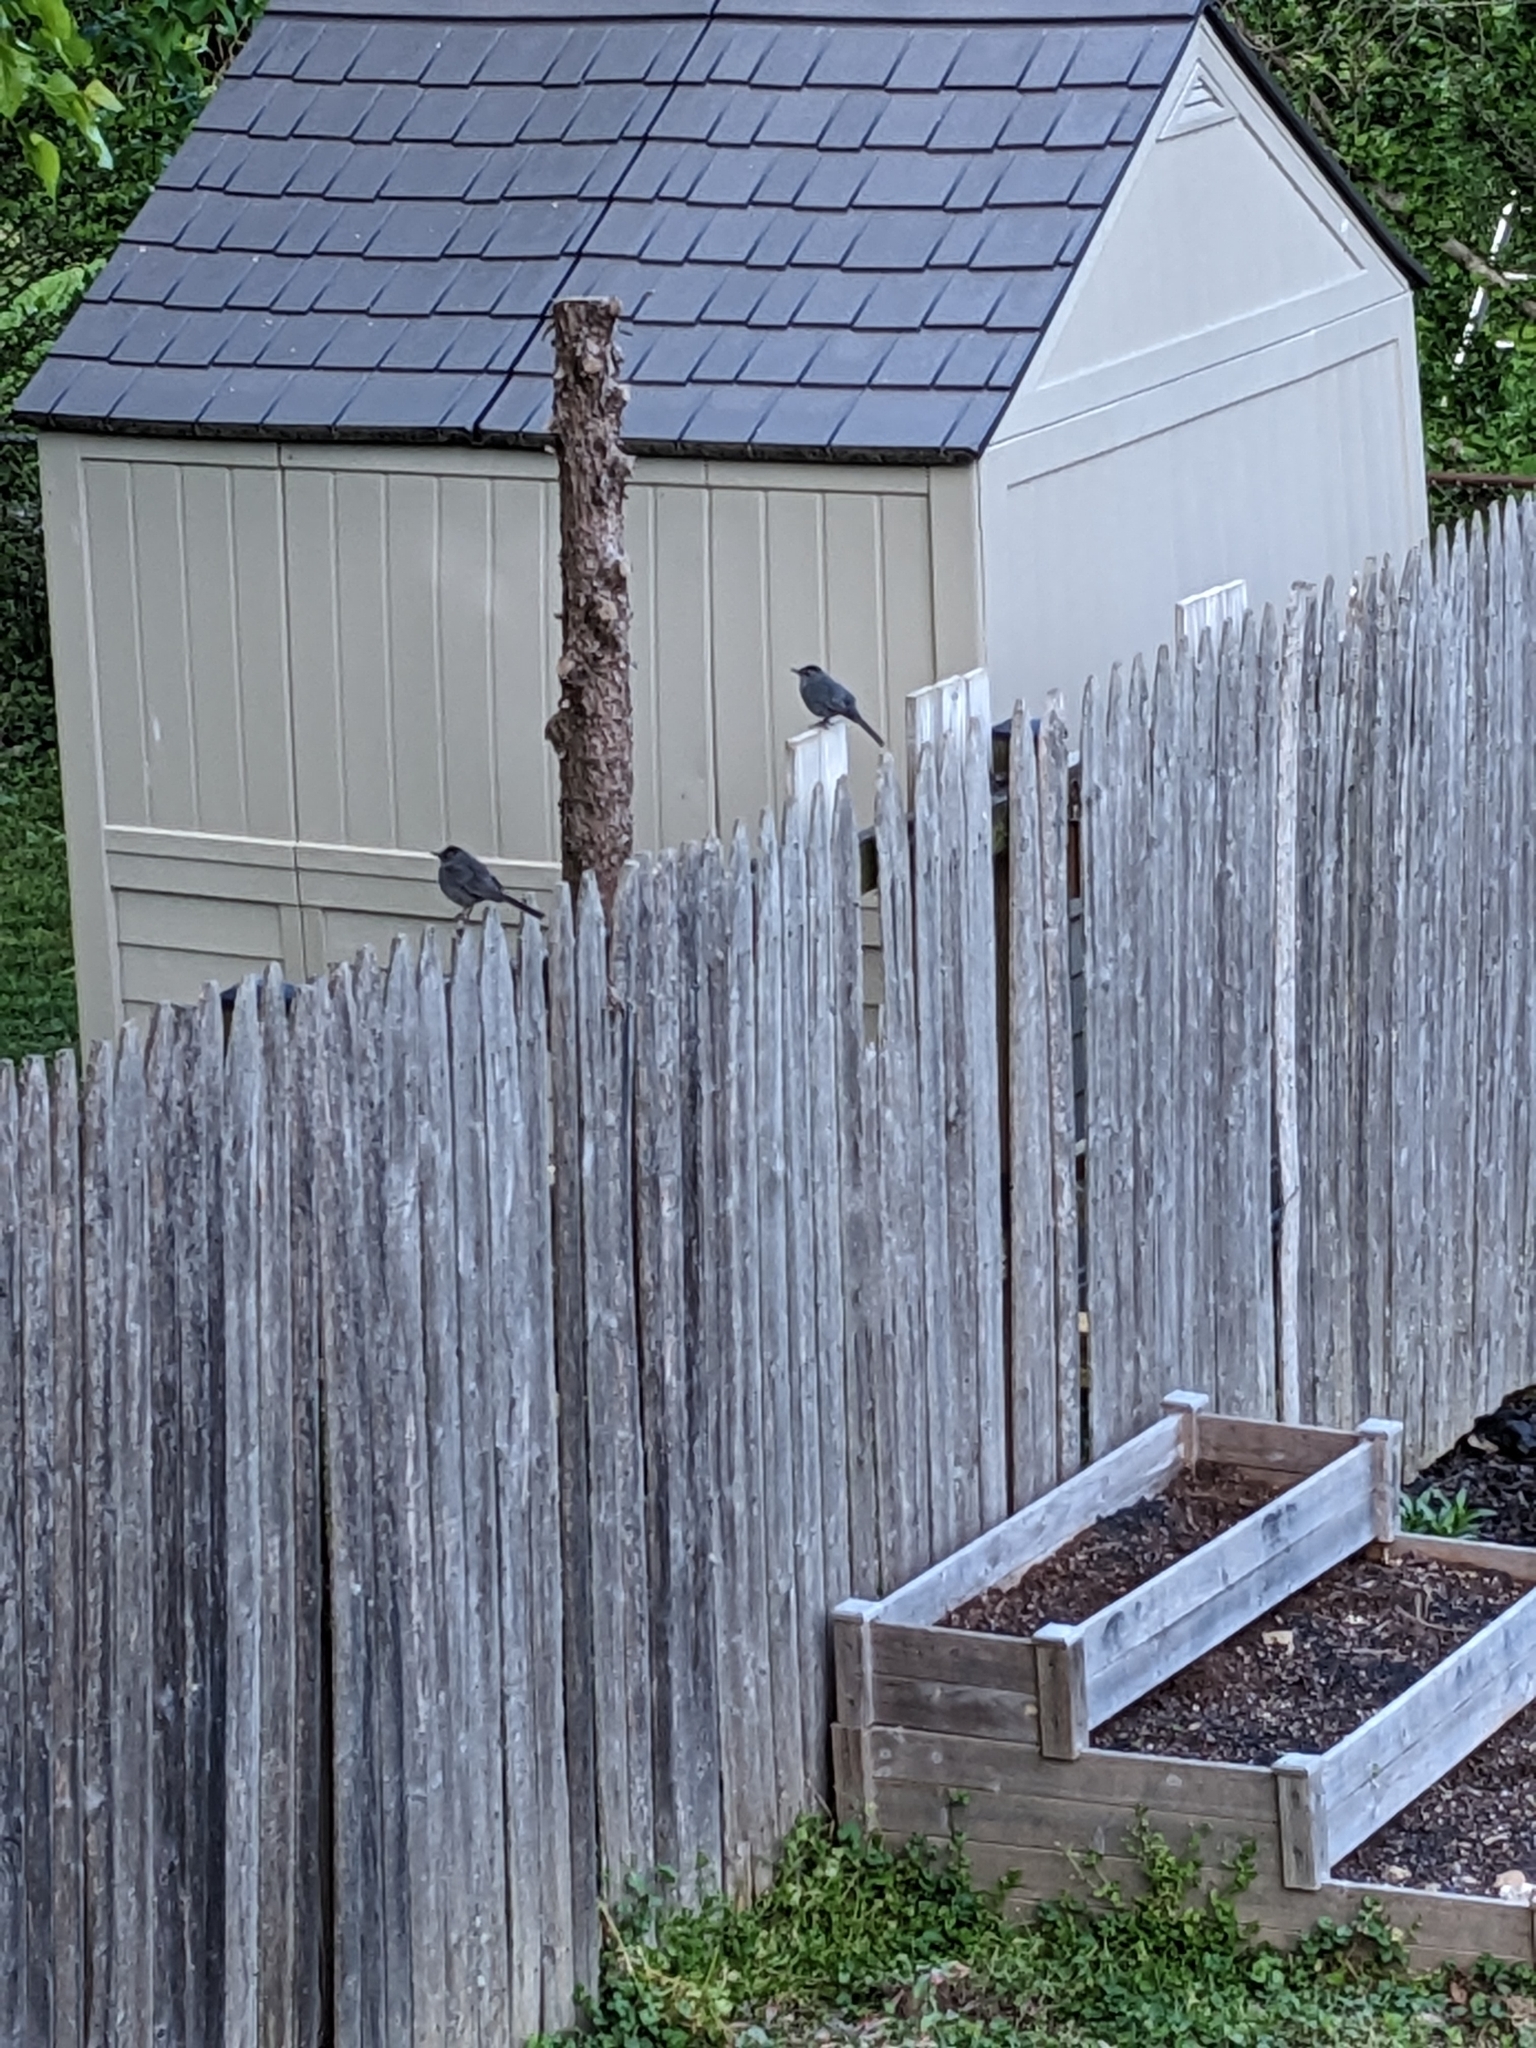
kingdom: Animalia
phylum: Chordata
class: Aves
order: Passeriformes
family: Mimidae
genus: Dumetella
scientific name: Dumetella carolinensis
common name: Gray catbird
